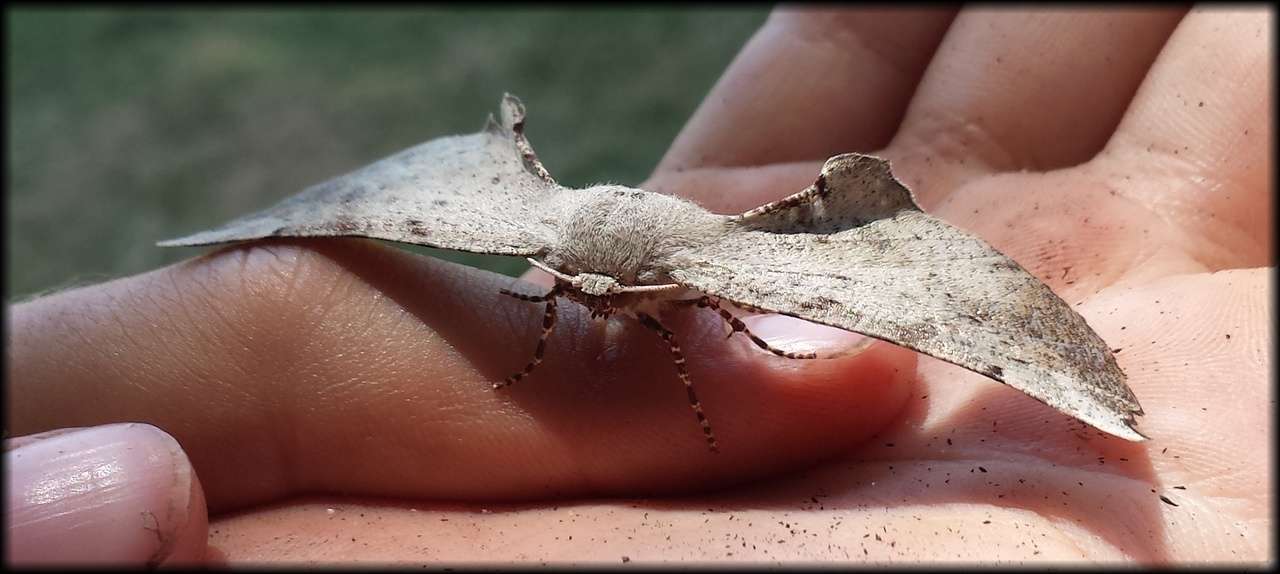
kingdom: Animalia
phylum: Arthropoda
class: Insecta
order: Lepidoptera
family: Geometridae
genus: Circopetes
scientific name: Circopetes obtusata
